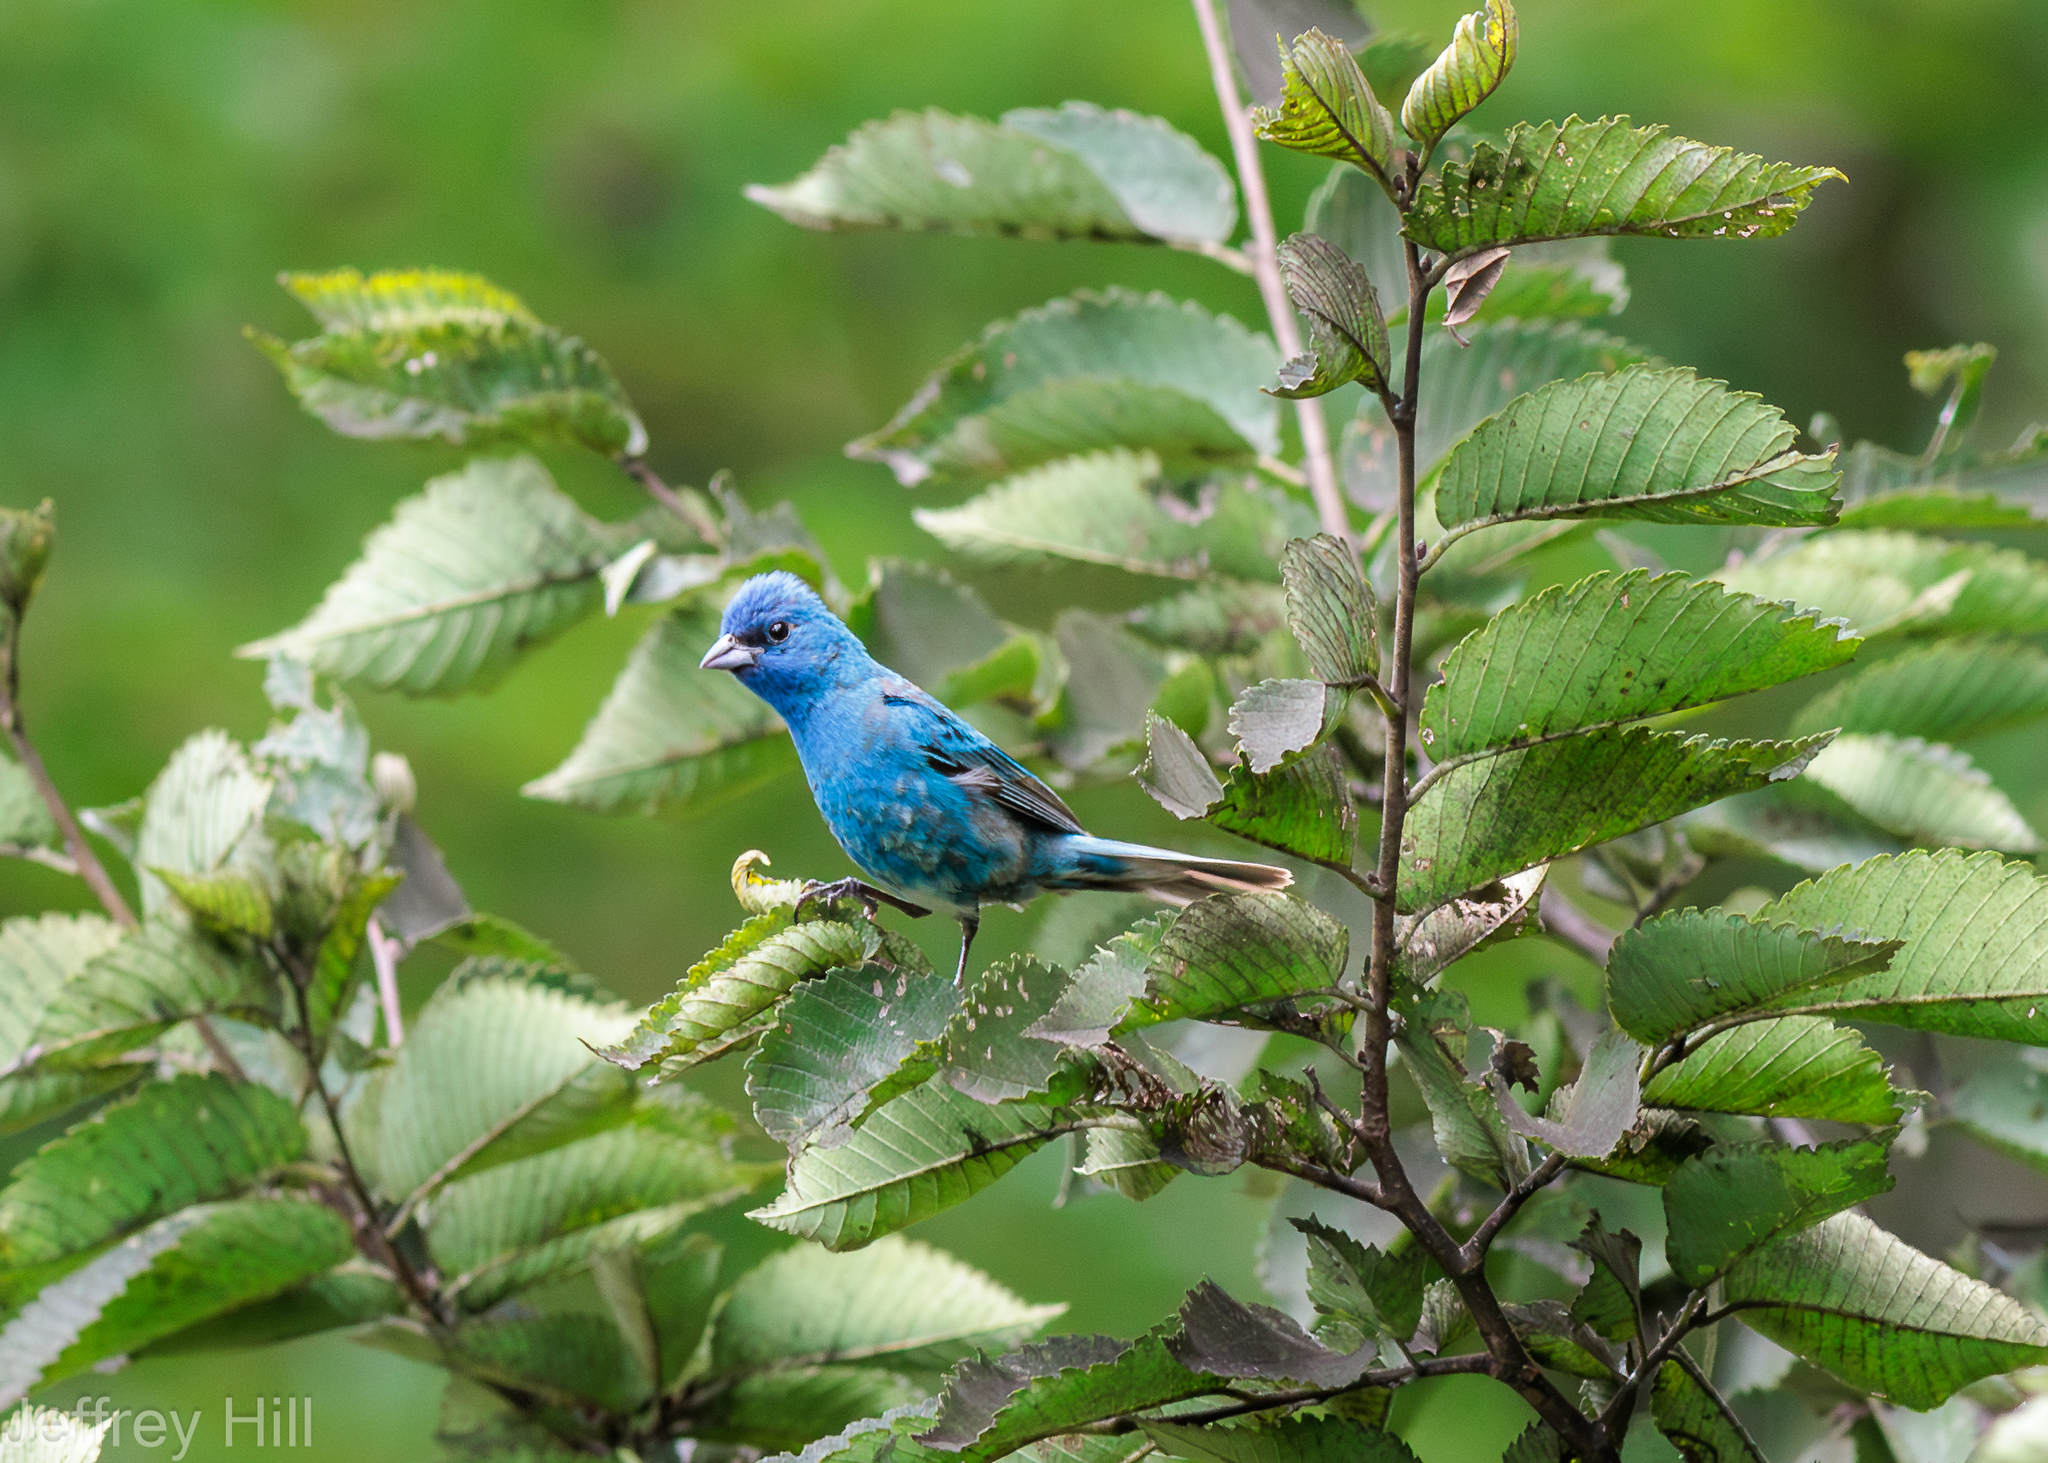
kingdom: Animalia
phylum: Chordata
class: Aves
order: Passeriformes
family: Cardinalidae
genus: Passerina
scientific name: Passerina cyanea
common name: Indigo bunting
